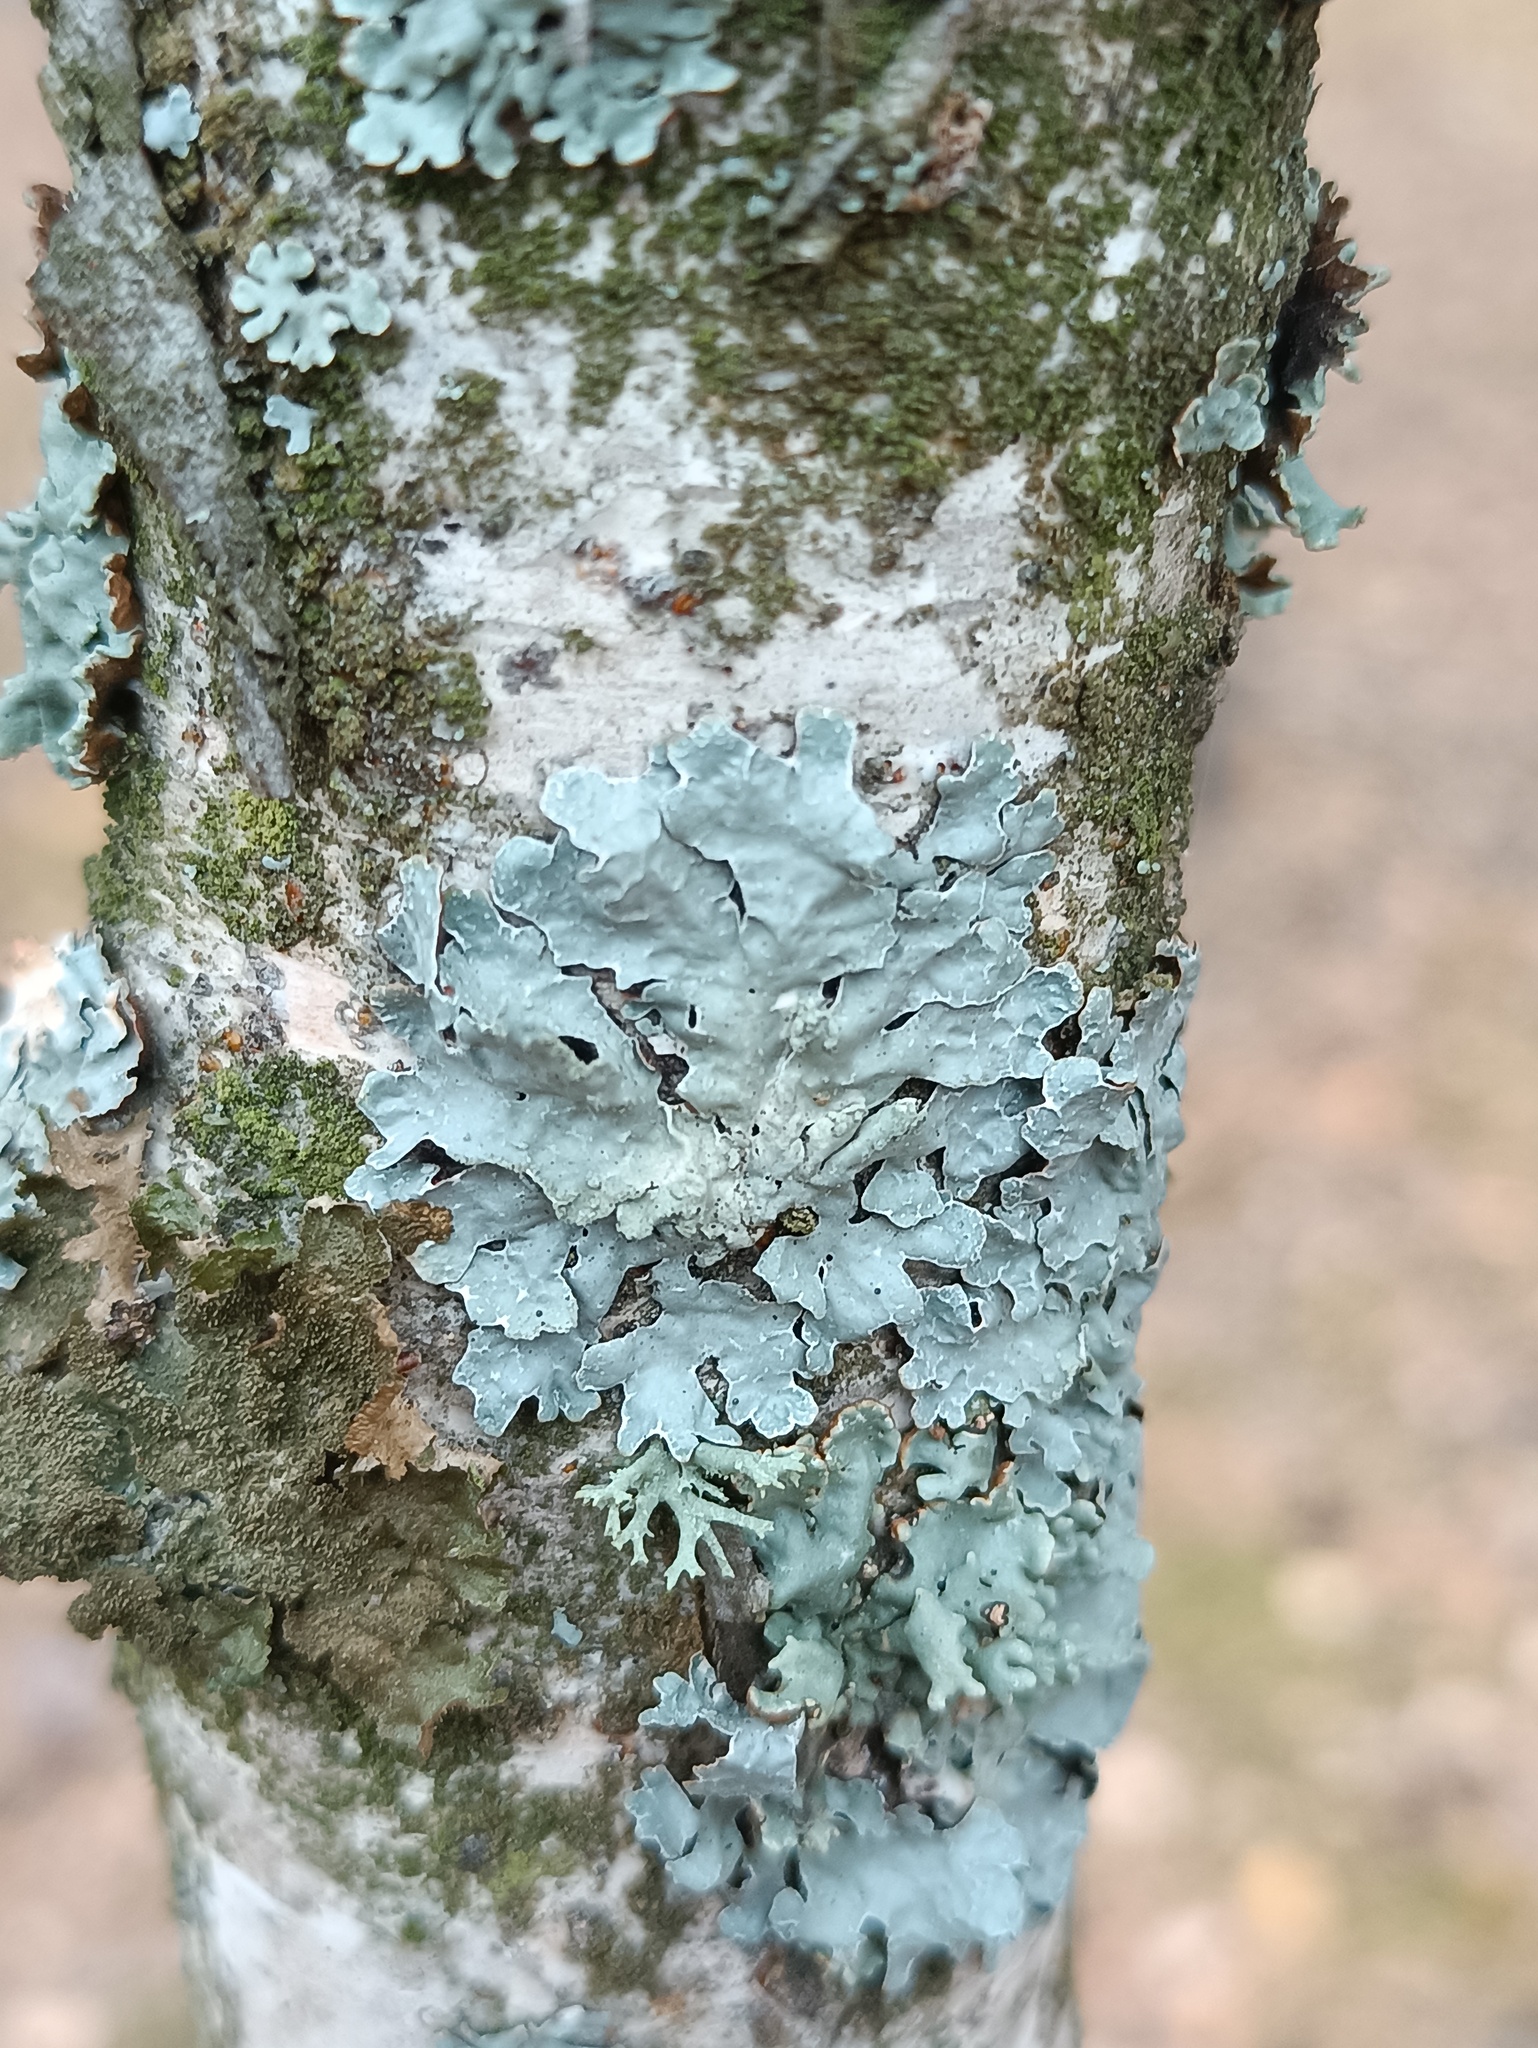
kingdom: Fungi
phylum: Ascomycota
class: Lecanoromycetes
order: Lecanorales
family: Parmeliaceae
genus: Parmelia
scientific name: Parmelia sulcata
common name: Netted shield lichen
